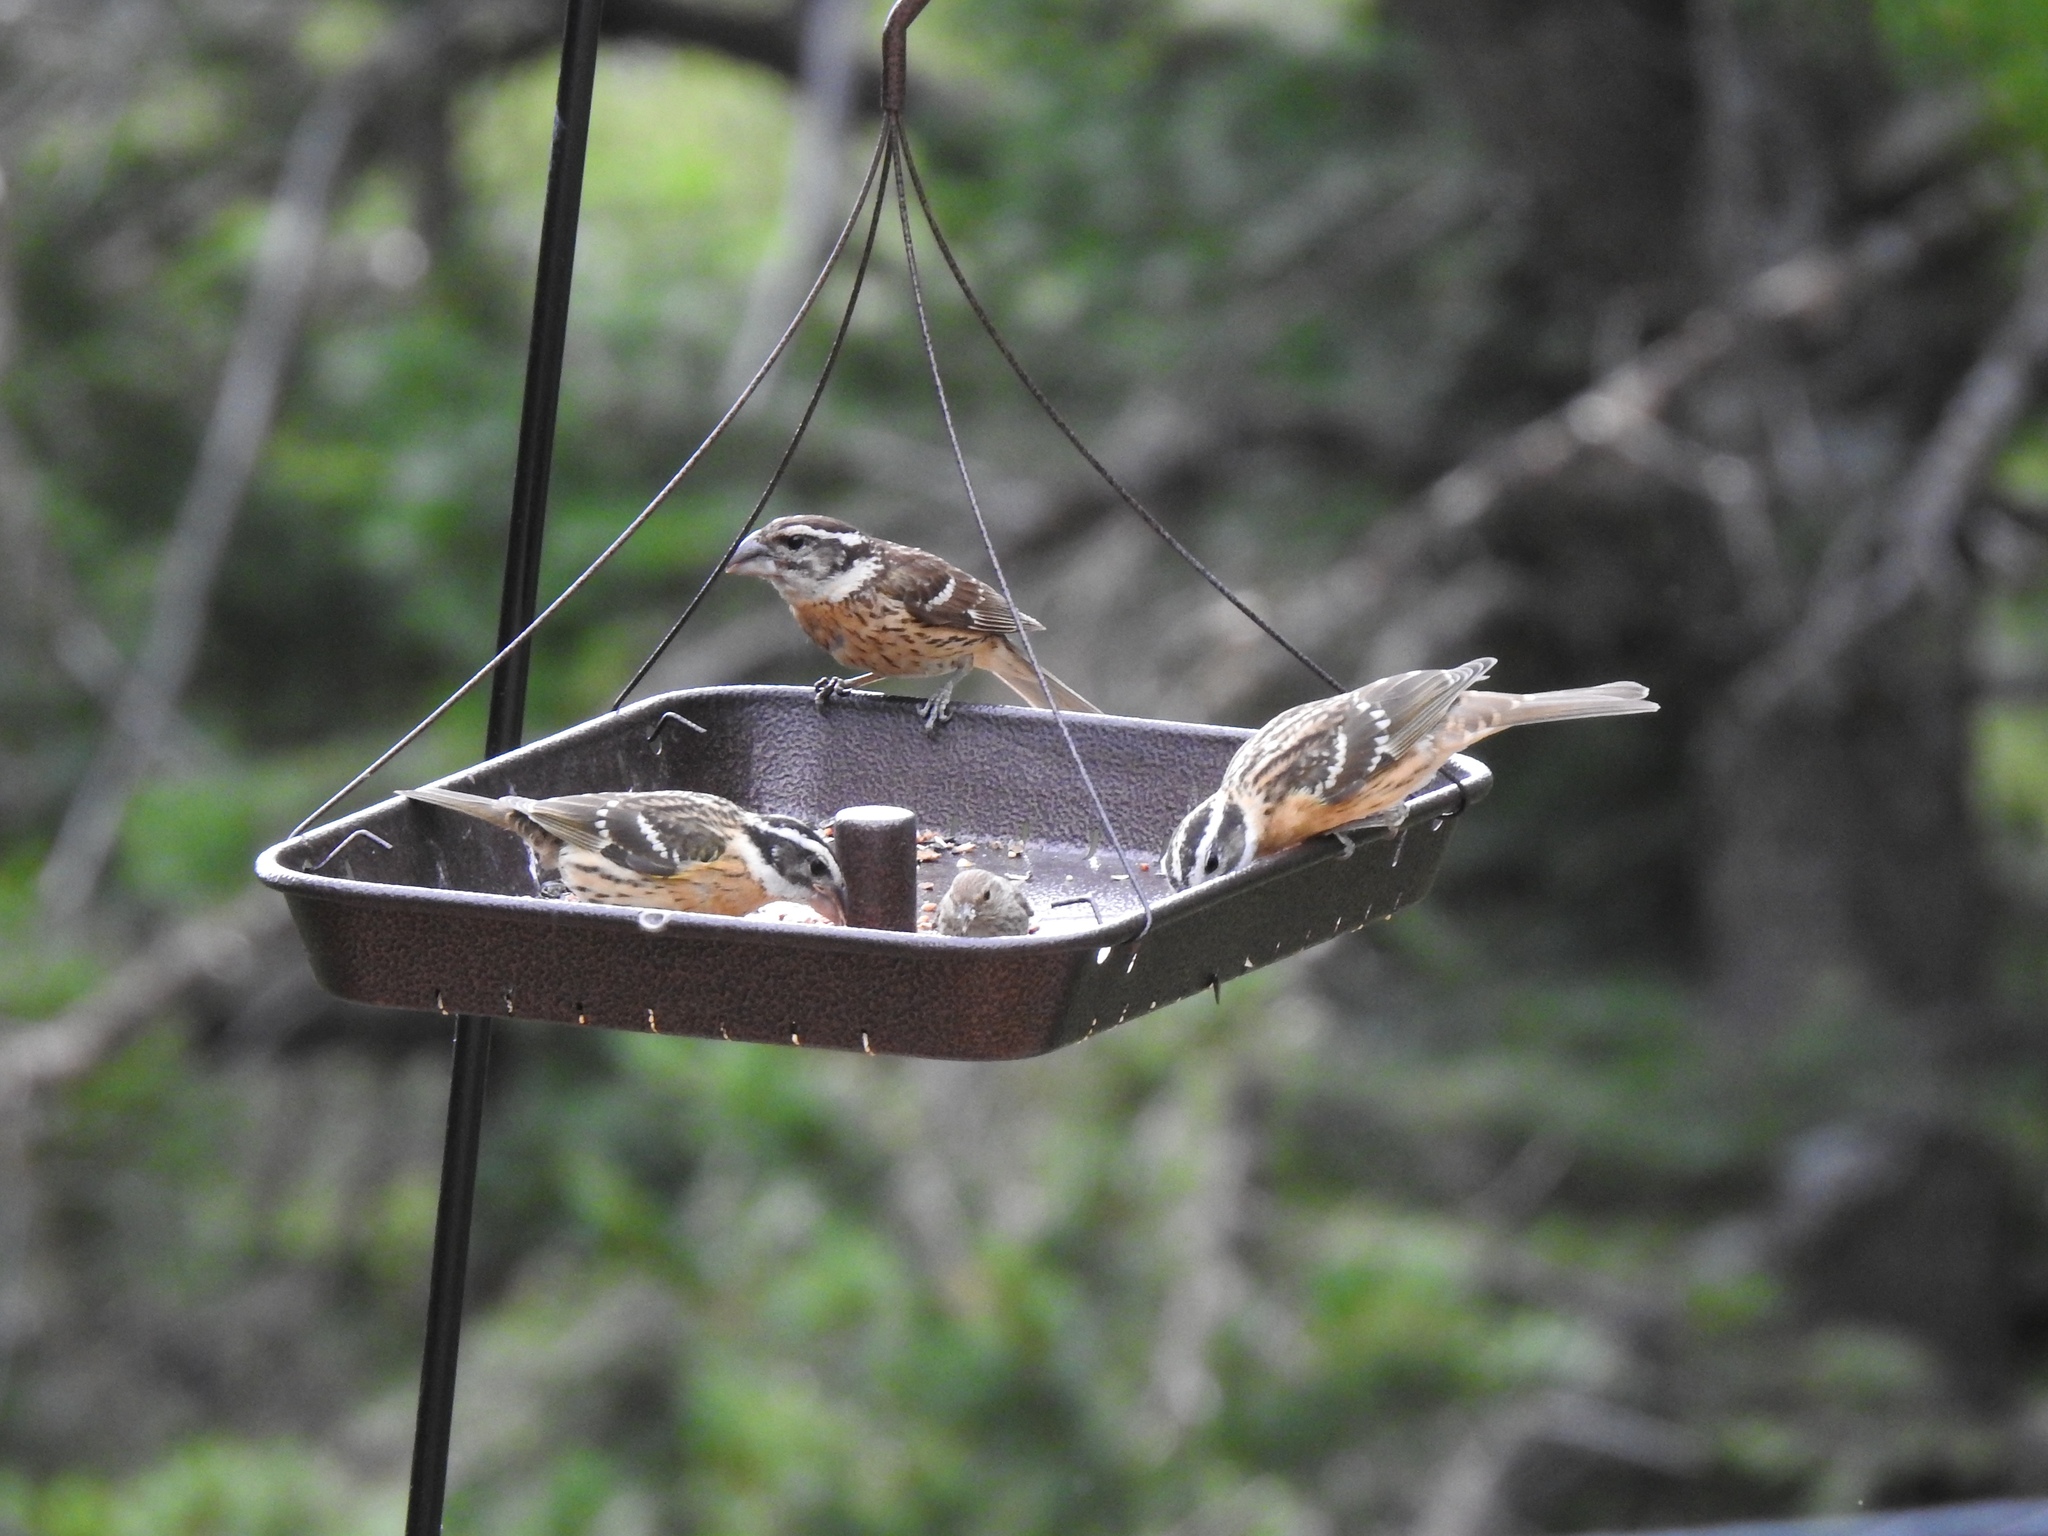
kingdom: Animalia
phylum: Chordata
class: Aves
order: Passeriformes
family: Cardinalidae
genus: Pheucticus
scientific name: Pheucticus melanocephalus
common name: Black-headed grosbeak
